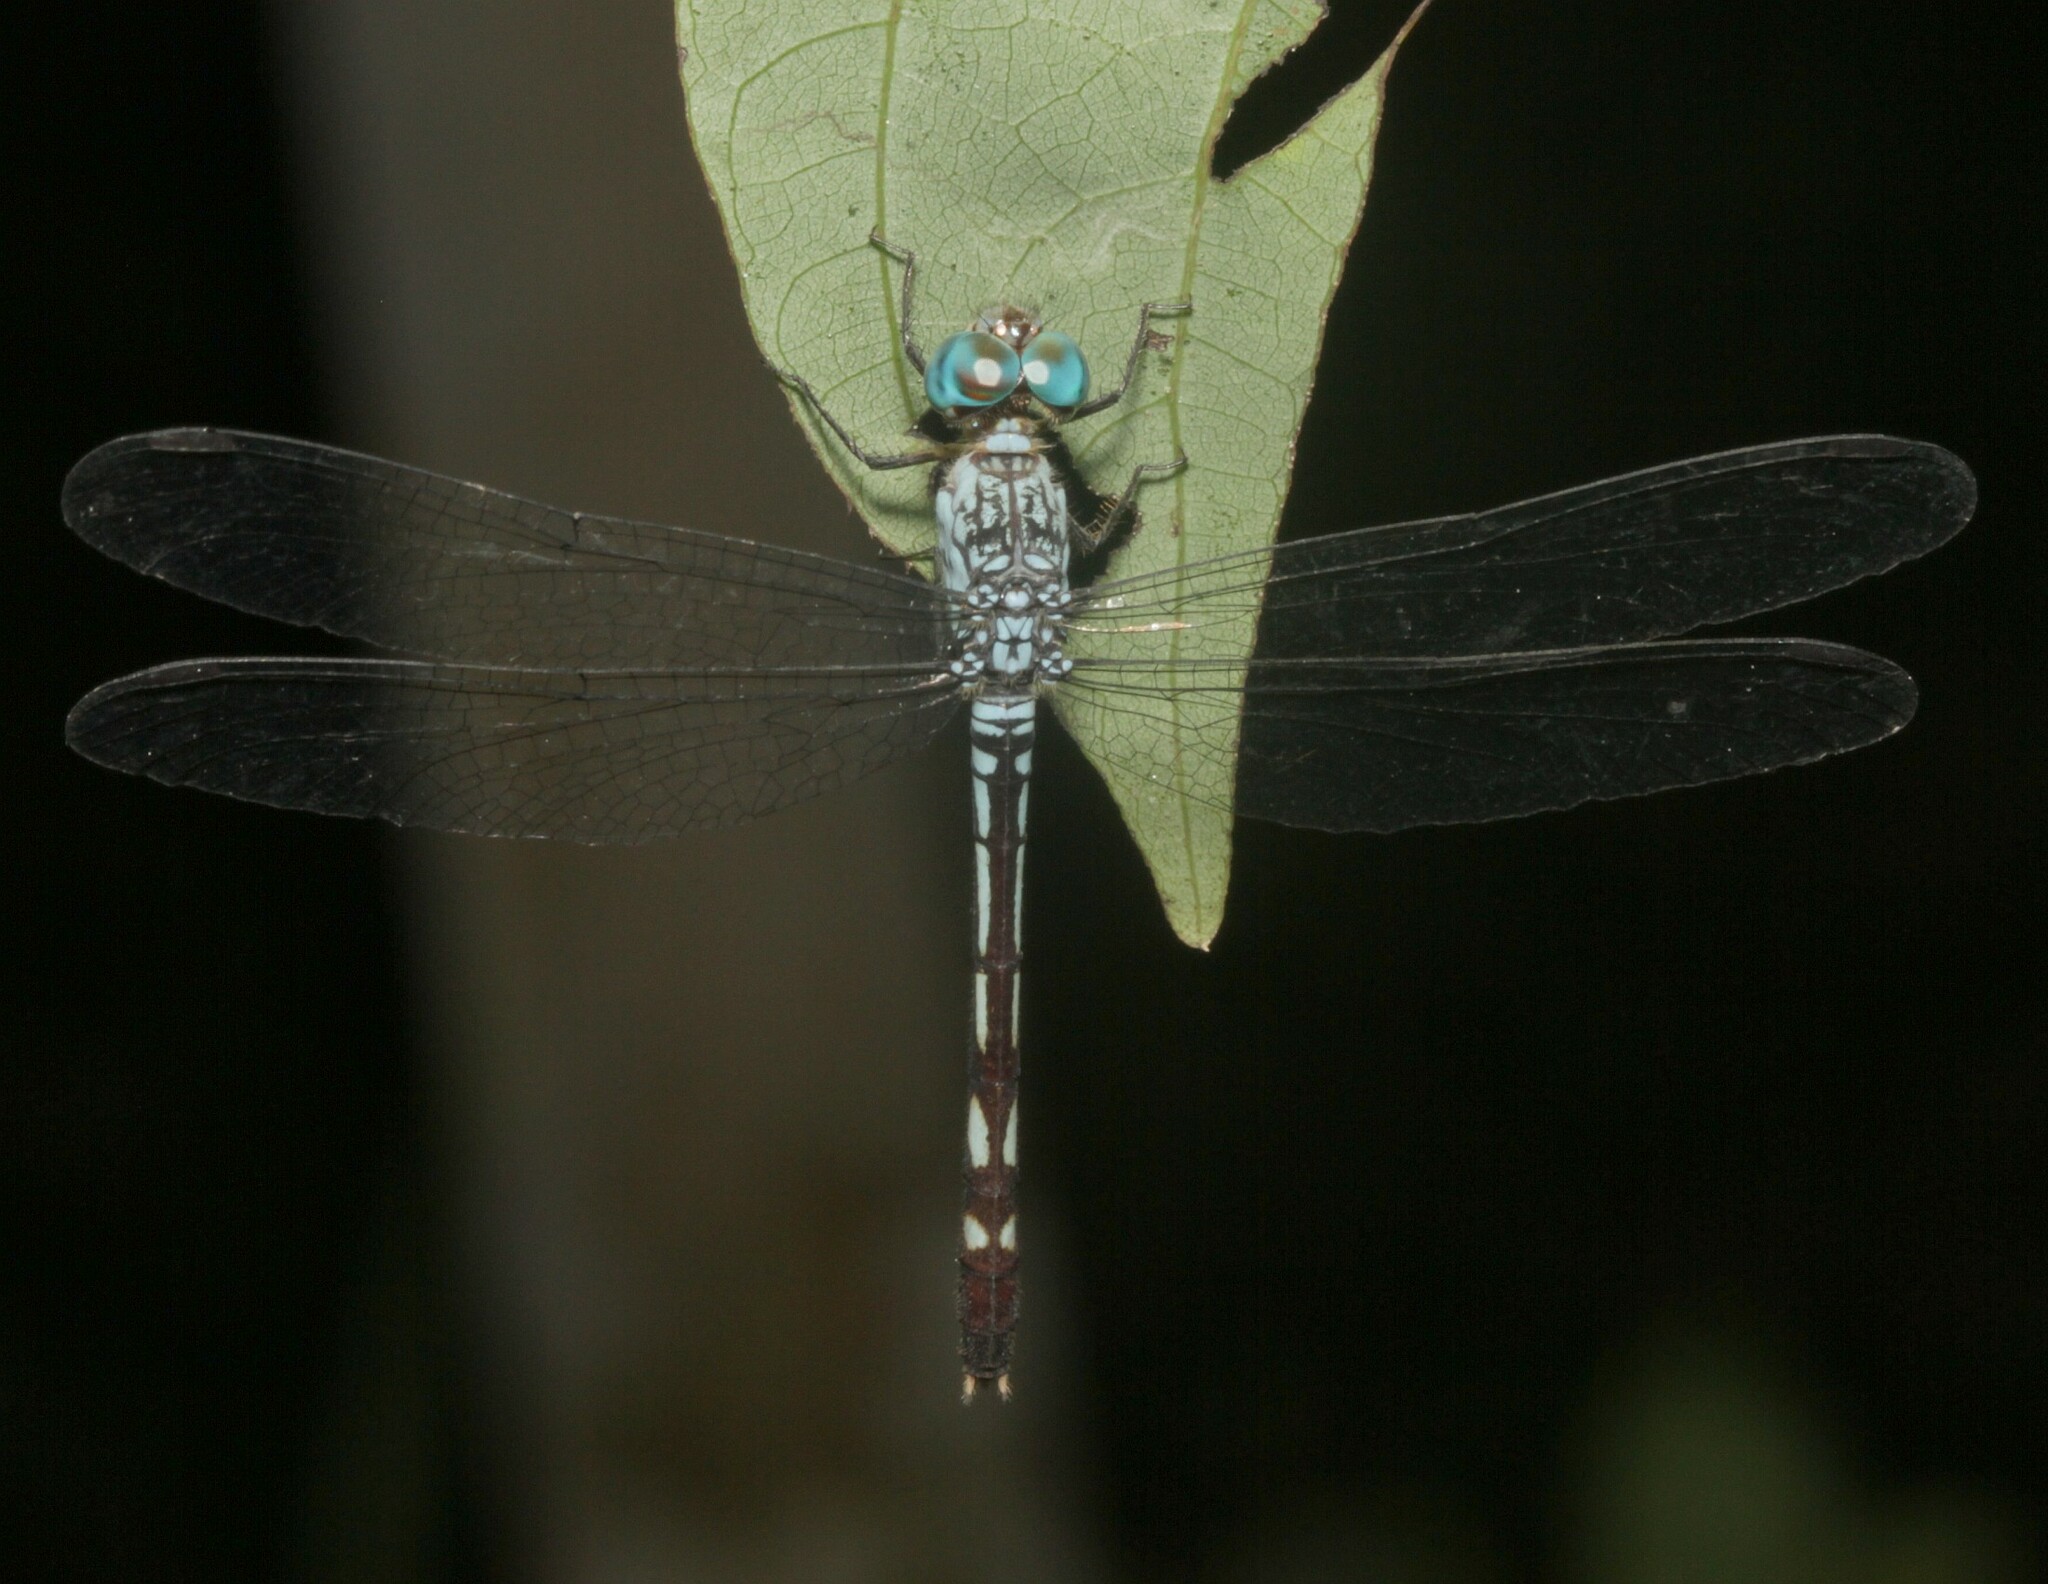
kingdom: Animalia
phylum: Arthropoda
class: Insecta
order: Odonata
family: Libellulidae
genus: Anatya
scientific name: Anatya guttata
